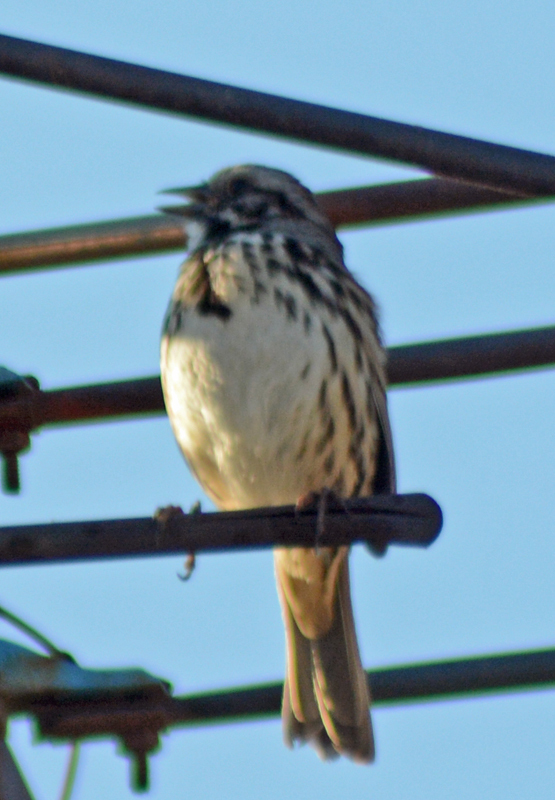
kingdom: Animalia
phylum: Chordata
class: Aves
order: Passeriformes
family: Passerellidae
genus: Melospiza
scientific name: Melospiza melodia
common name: Song sparrow
